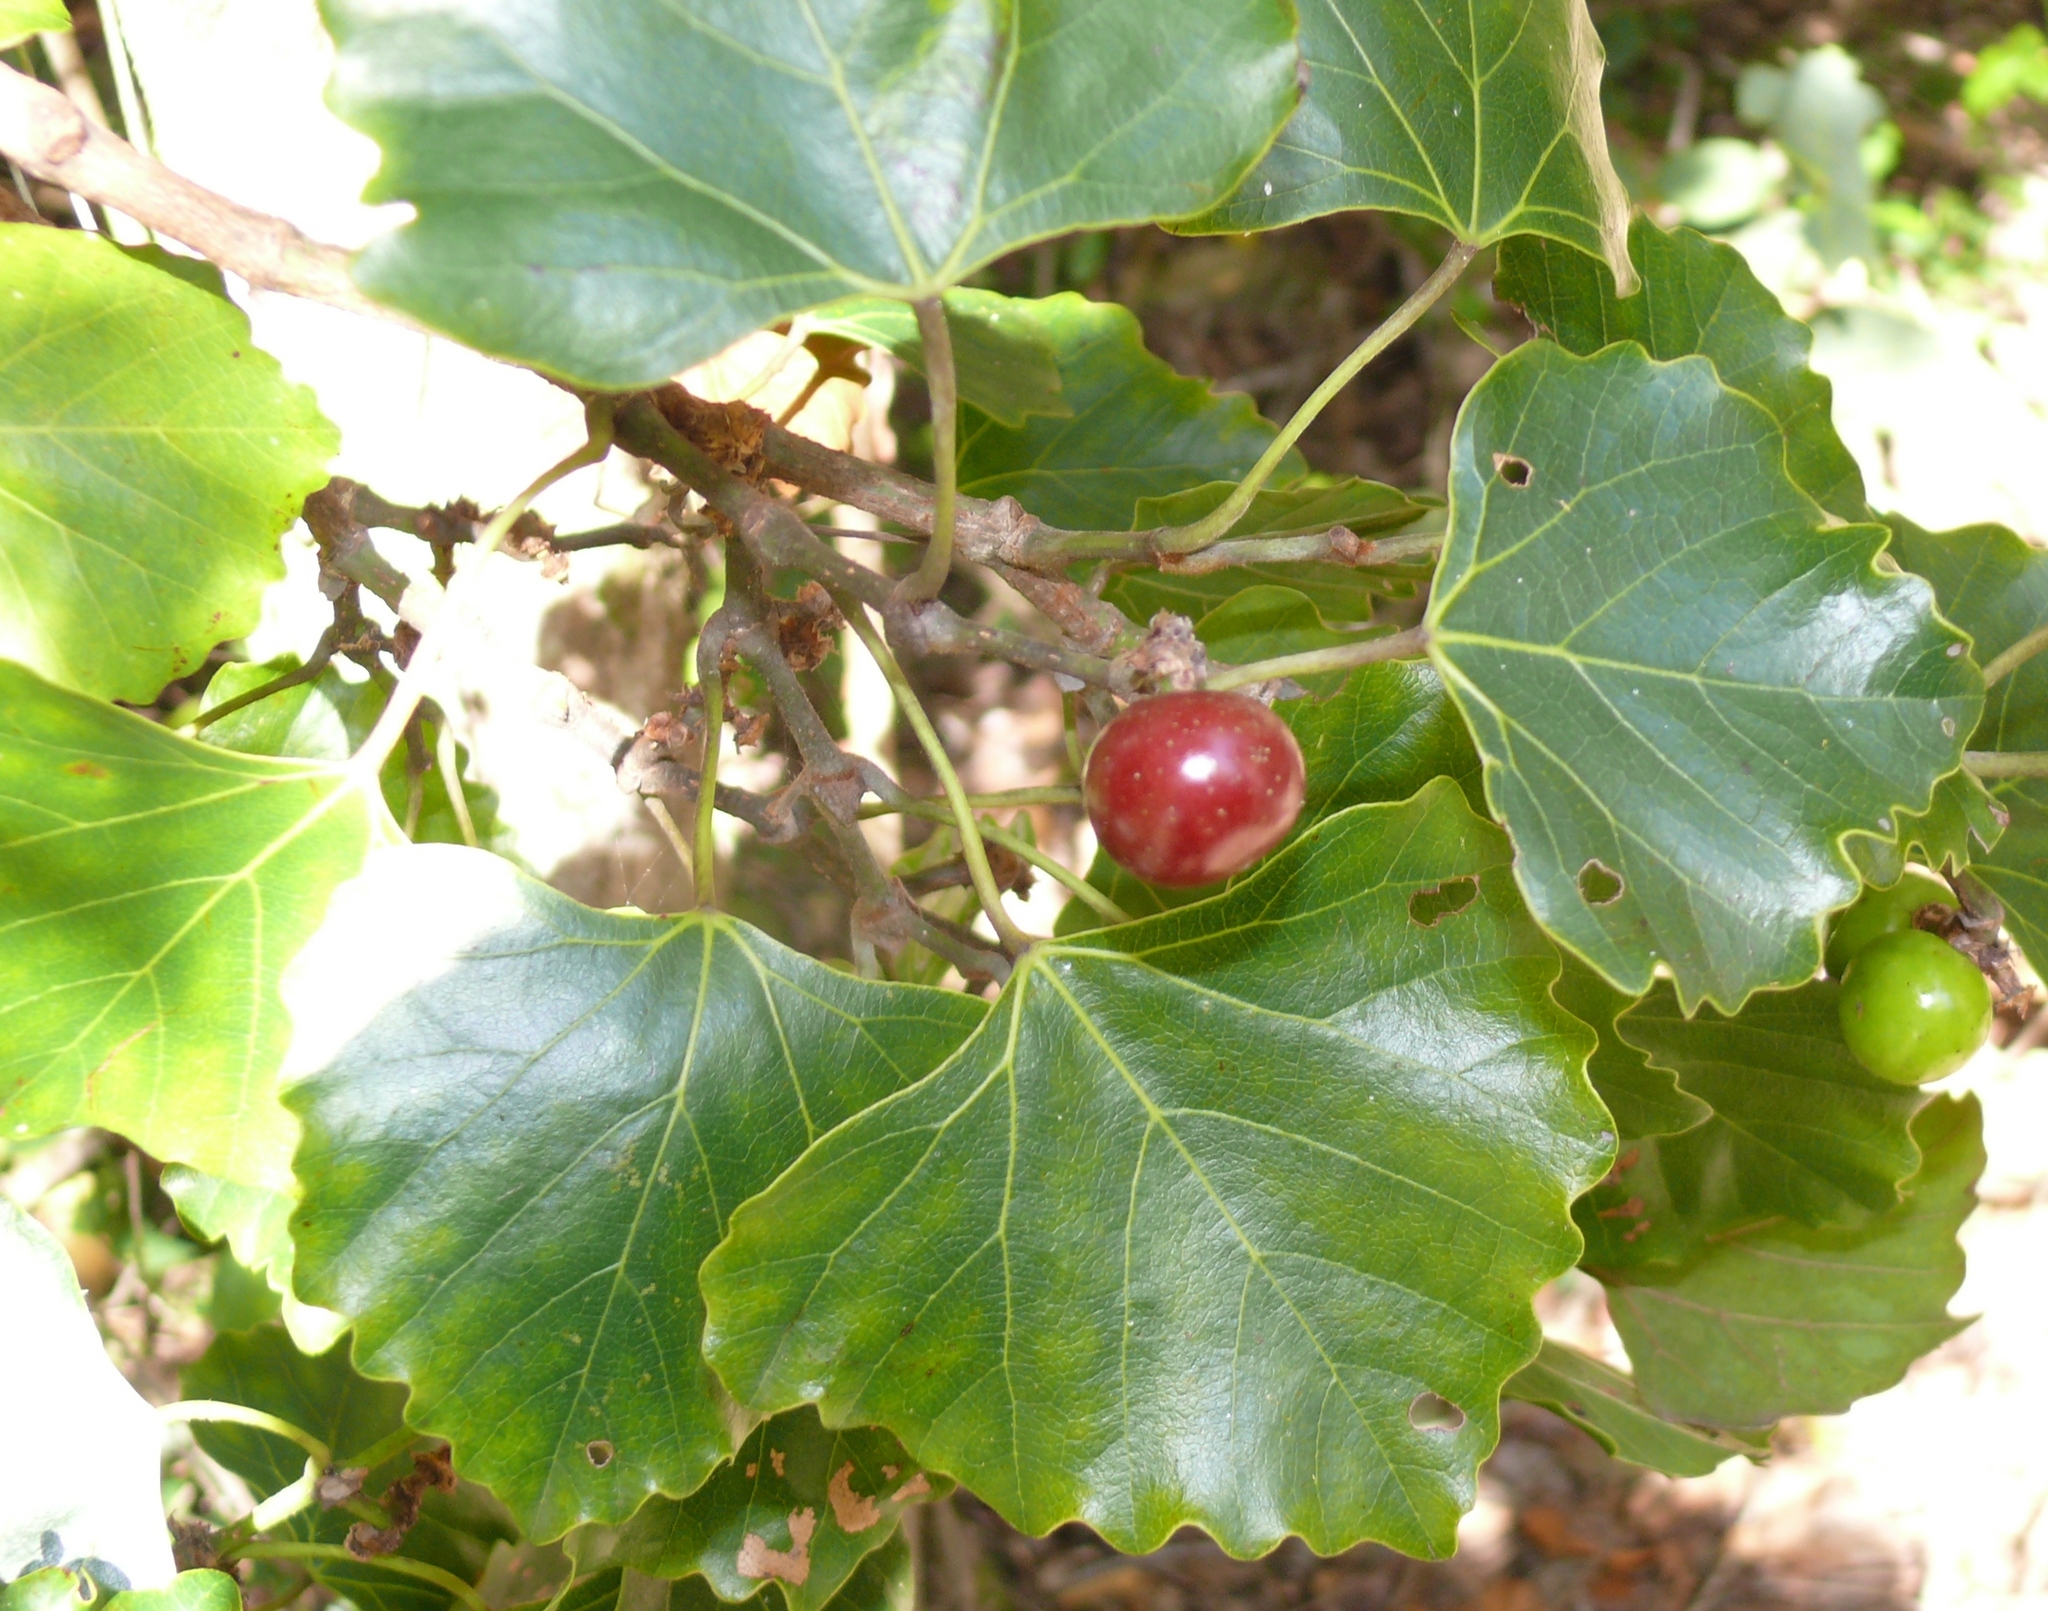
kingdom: Plantae
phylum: Tracheophyta
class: Magnoliopsida
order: Vitales
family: Vitaceae
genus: Rhoicissus
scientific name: Rhoicissus tomentosa
